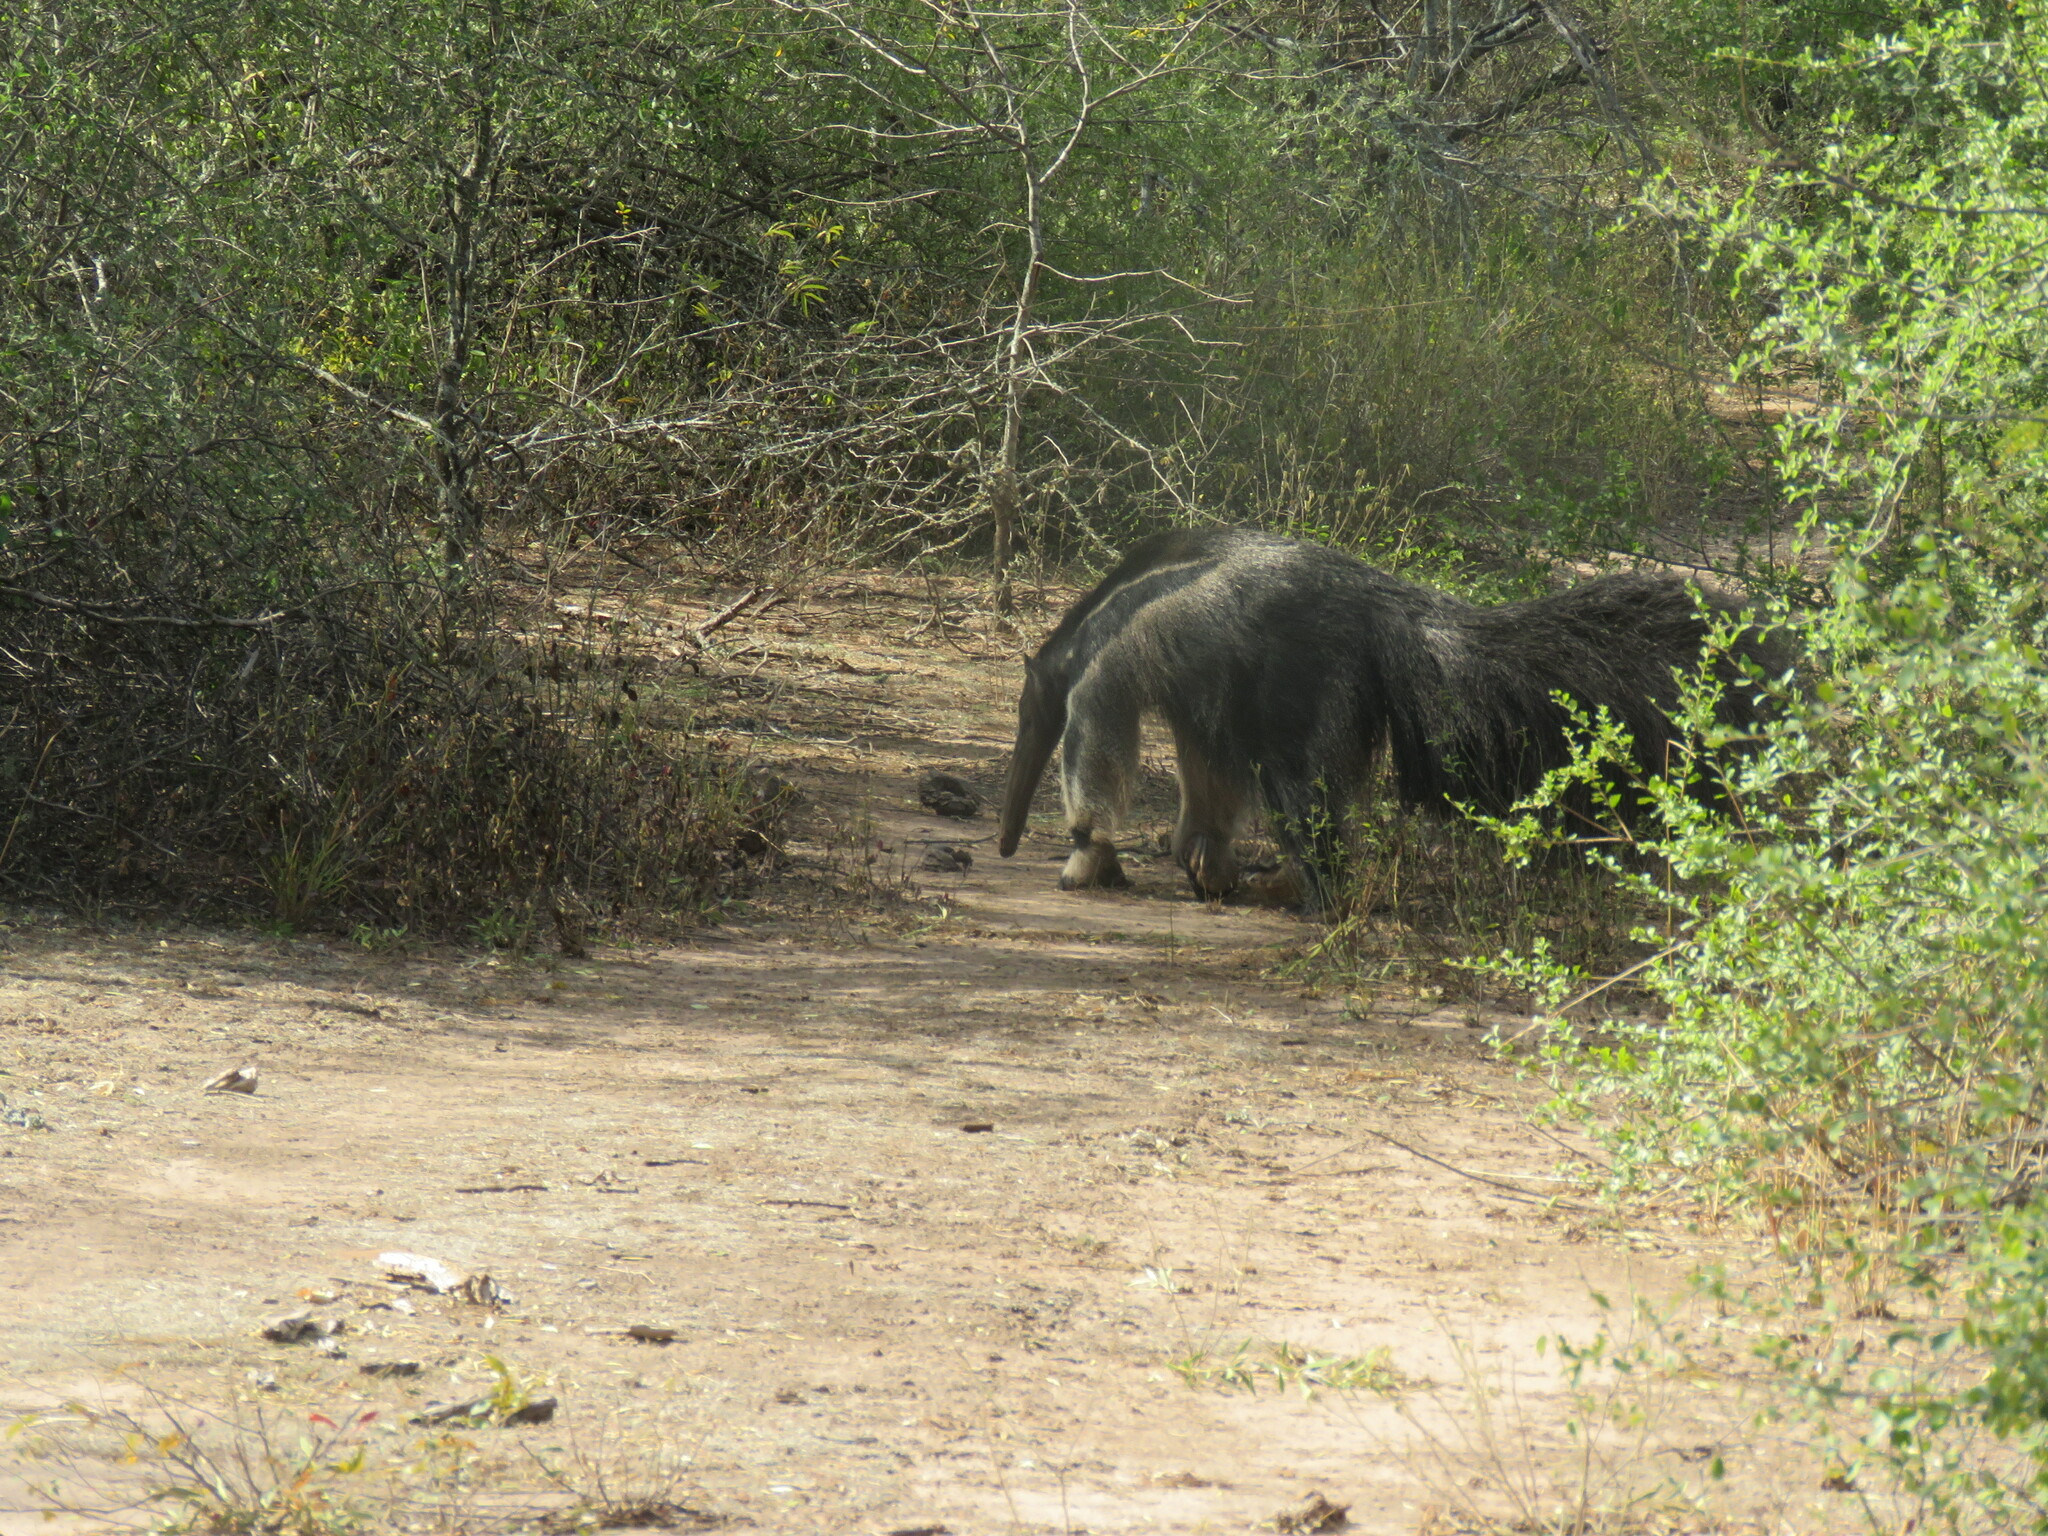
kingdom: Animalia
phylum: Chordata
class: Mammalia
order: Pilosa
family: Myrmecophagidae
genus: Myrmecophaga
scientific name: Myrmecophaga tridactyla
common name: Giant anteater
